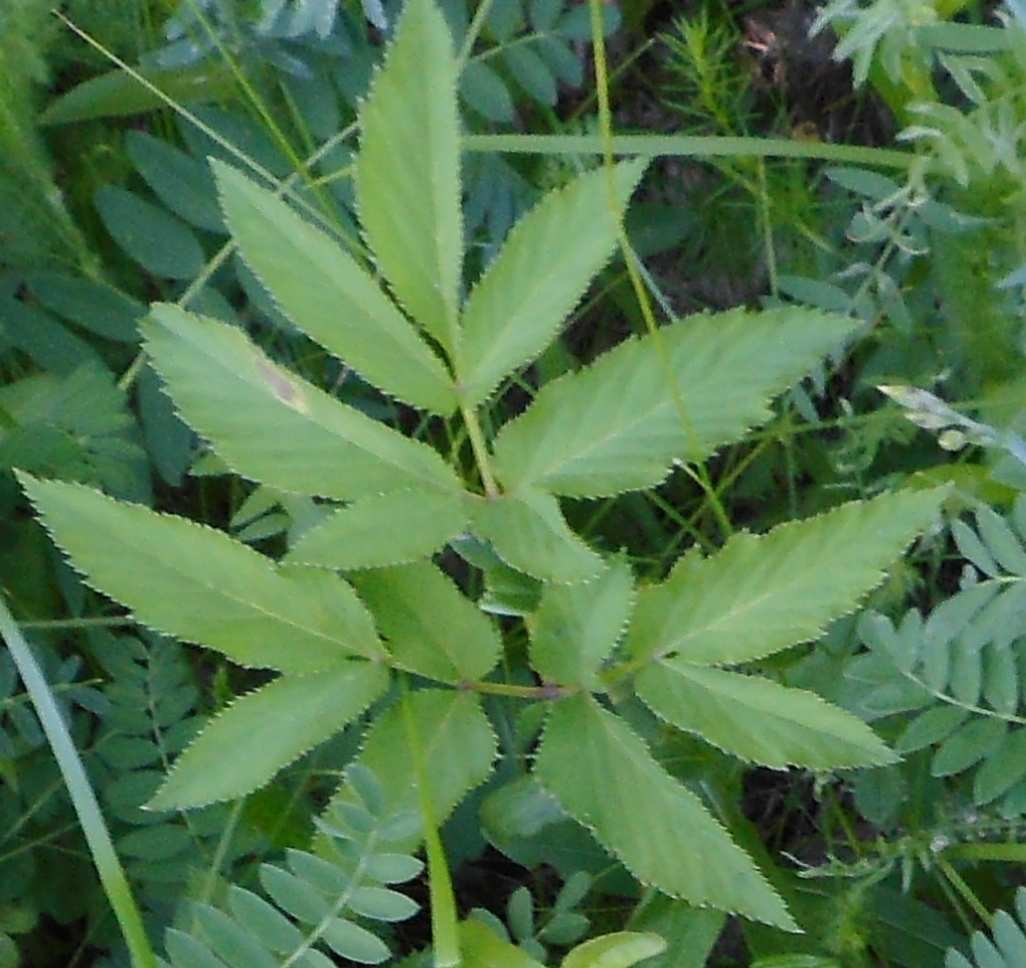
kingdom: Plantae
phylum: Tracheophyta
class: Magnoliopsida
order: Apiales
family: Apiaceae
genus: Aegopodium
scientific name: Aegopodium podagraria
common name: Ground-elder
